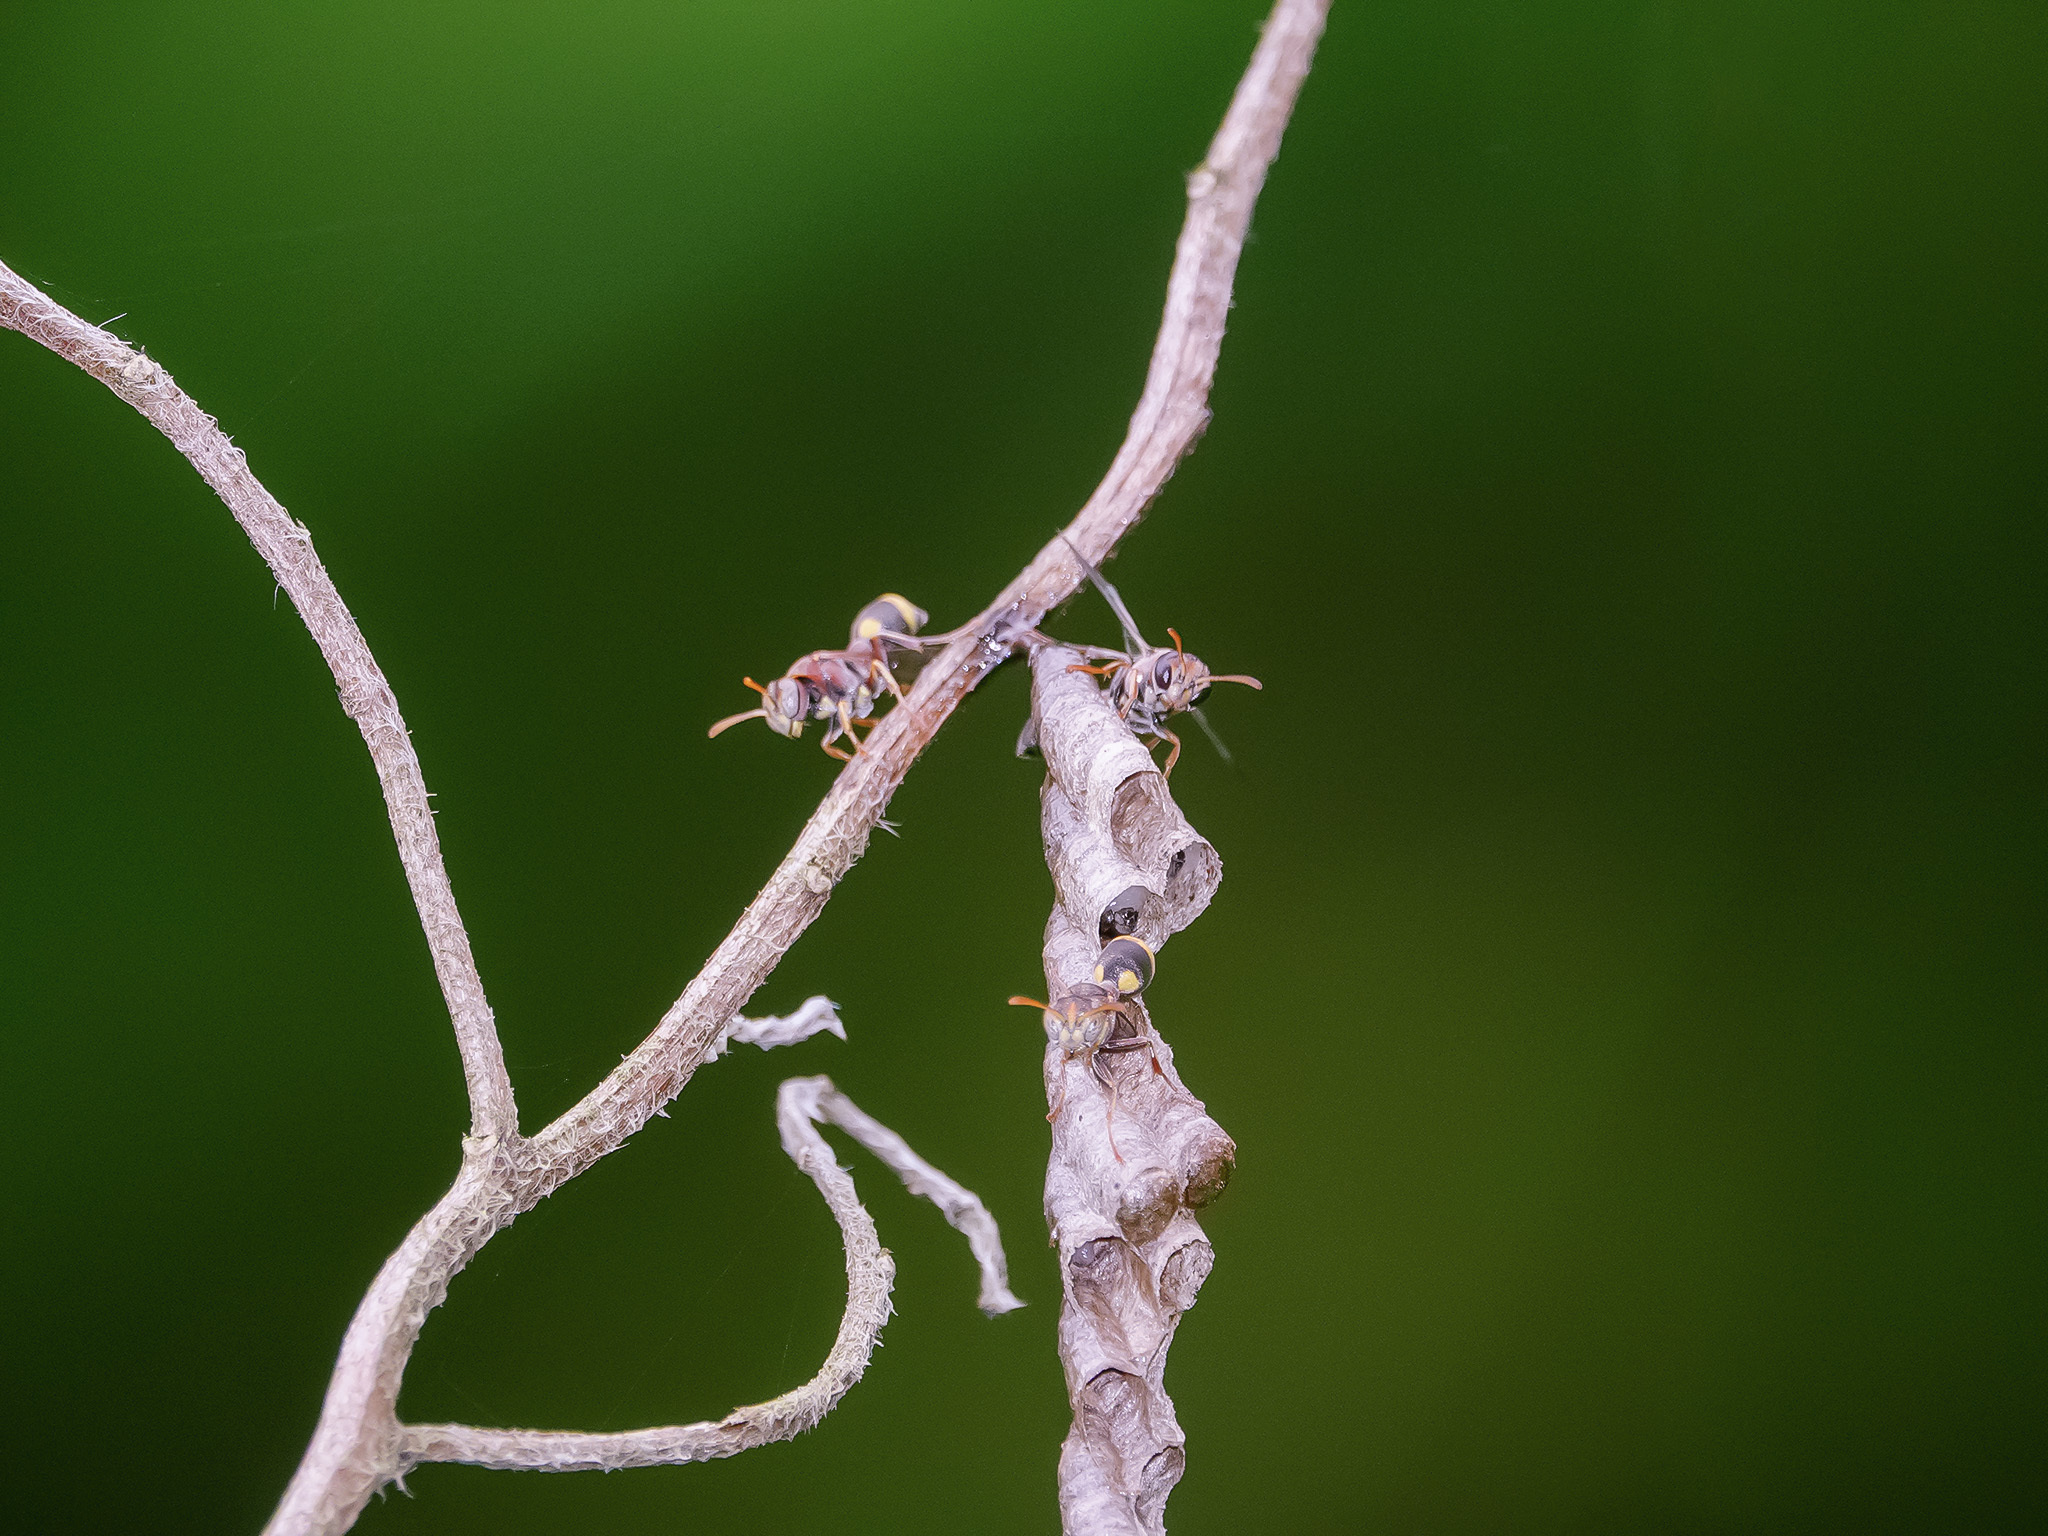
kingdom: Animalia
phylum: Arthropoda
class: Insecta
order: Hymenoptera
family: Vespidae
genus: Ropalidia
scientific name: Ropalidia jacobsoni
